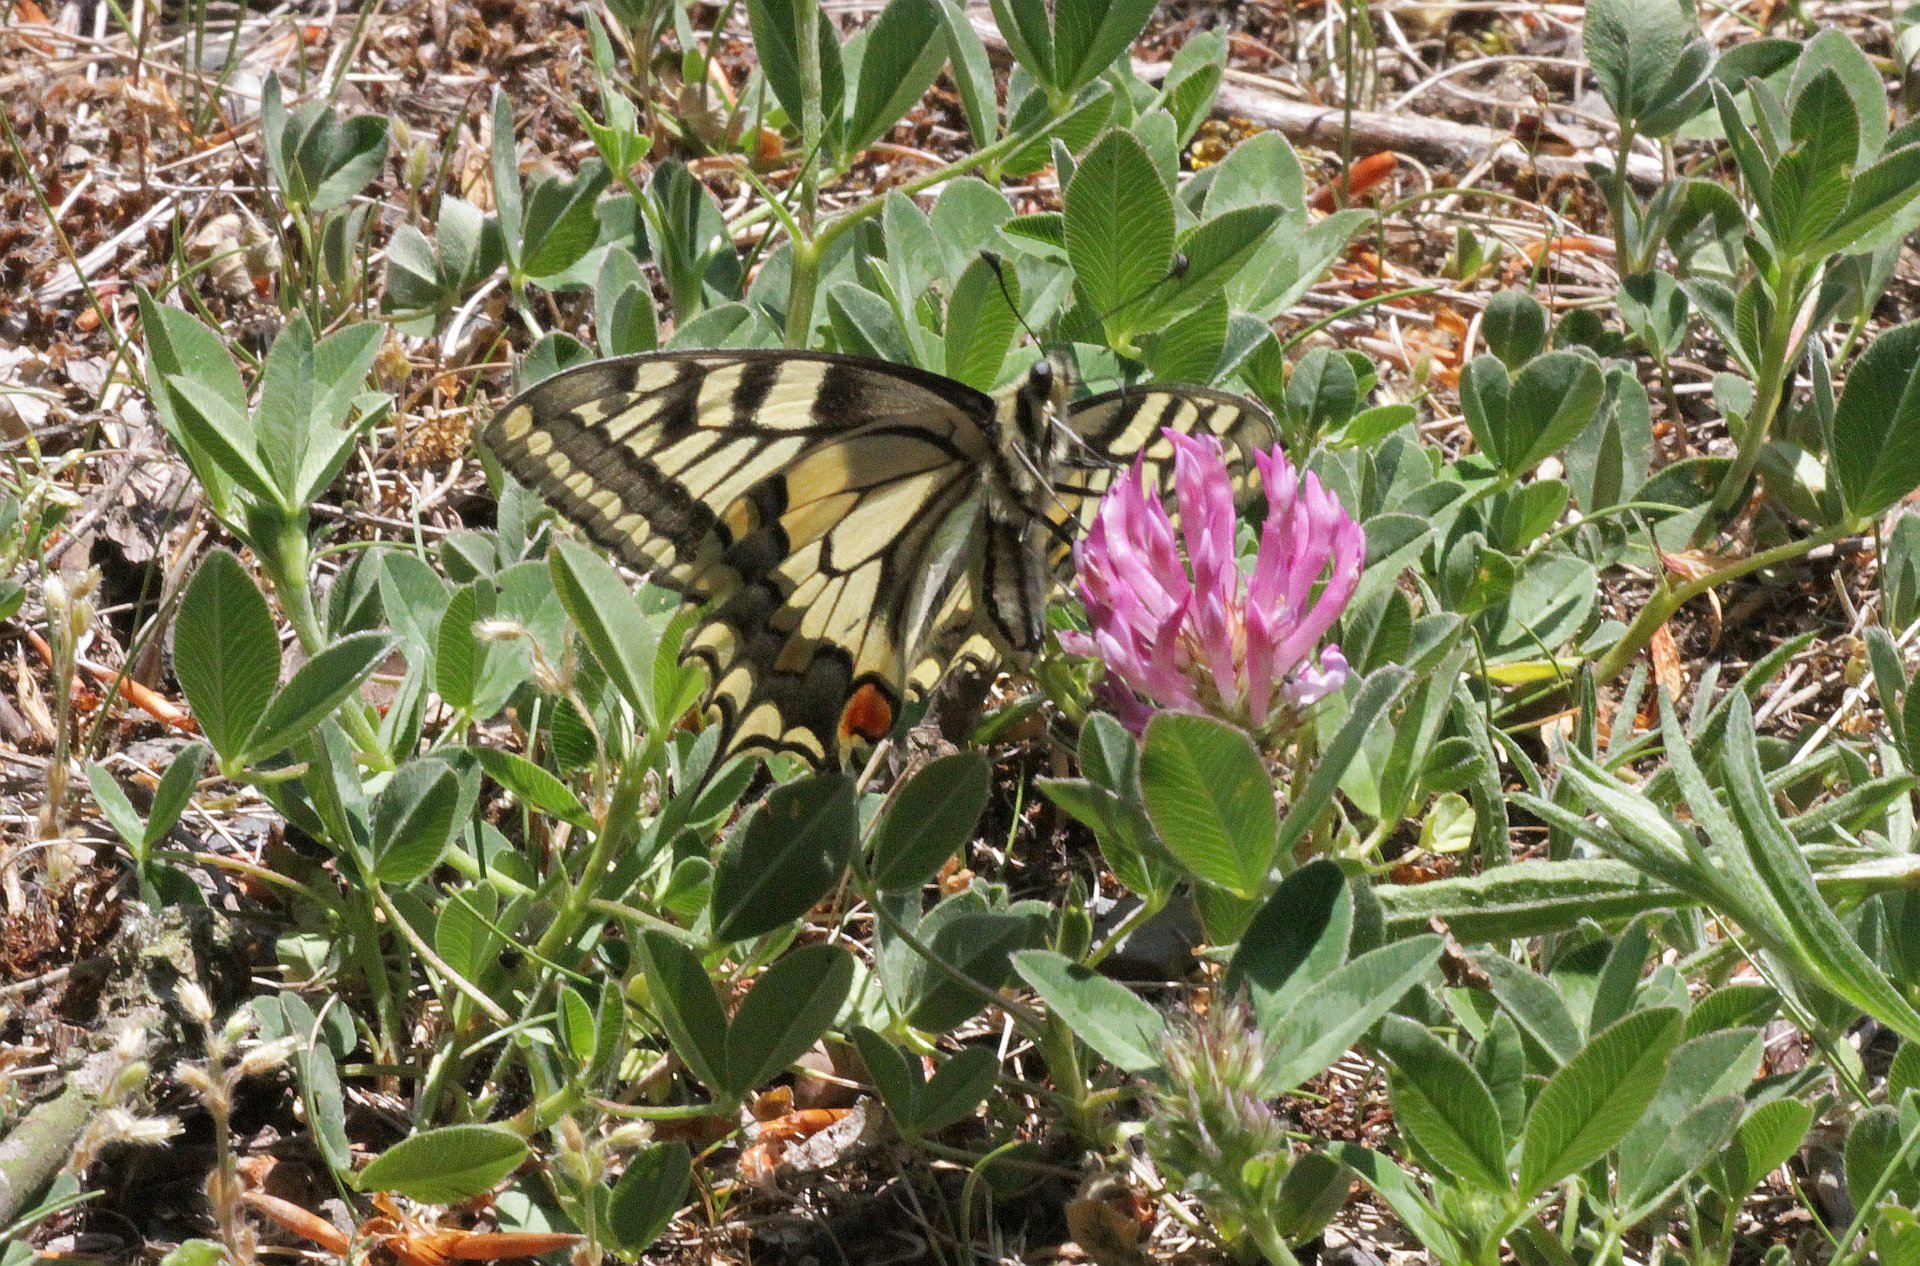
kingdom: Animalia
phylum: Arthropoda
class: Insecta
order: Lepidoptera
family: Papilionidae
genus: Papilio
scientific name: Papilio machaon
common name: Swallowtail
